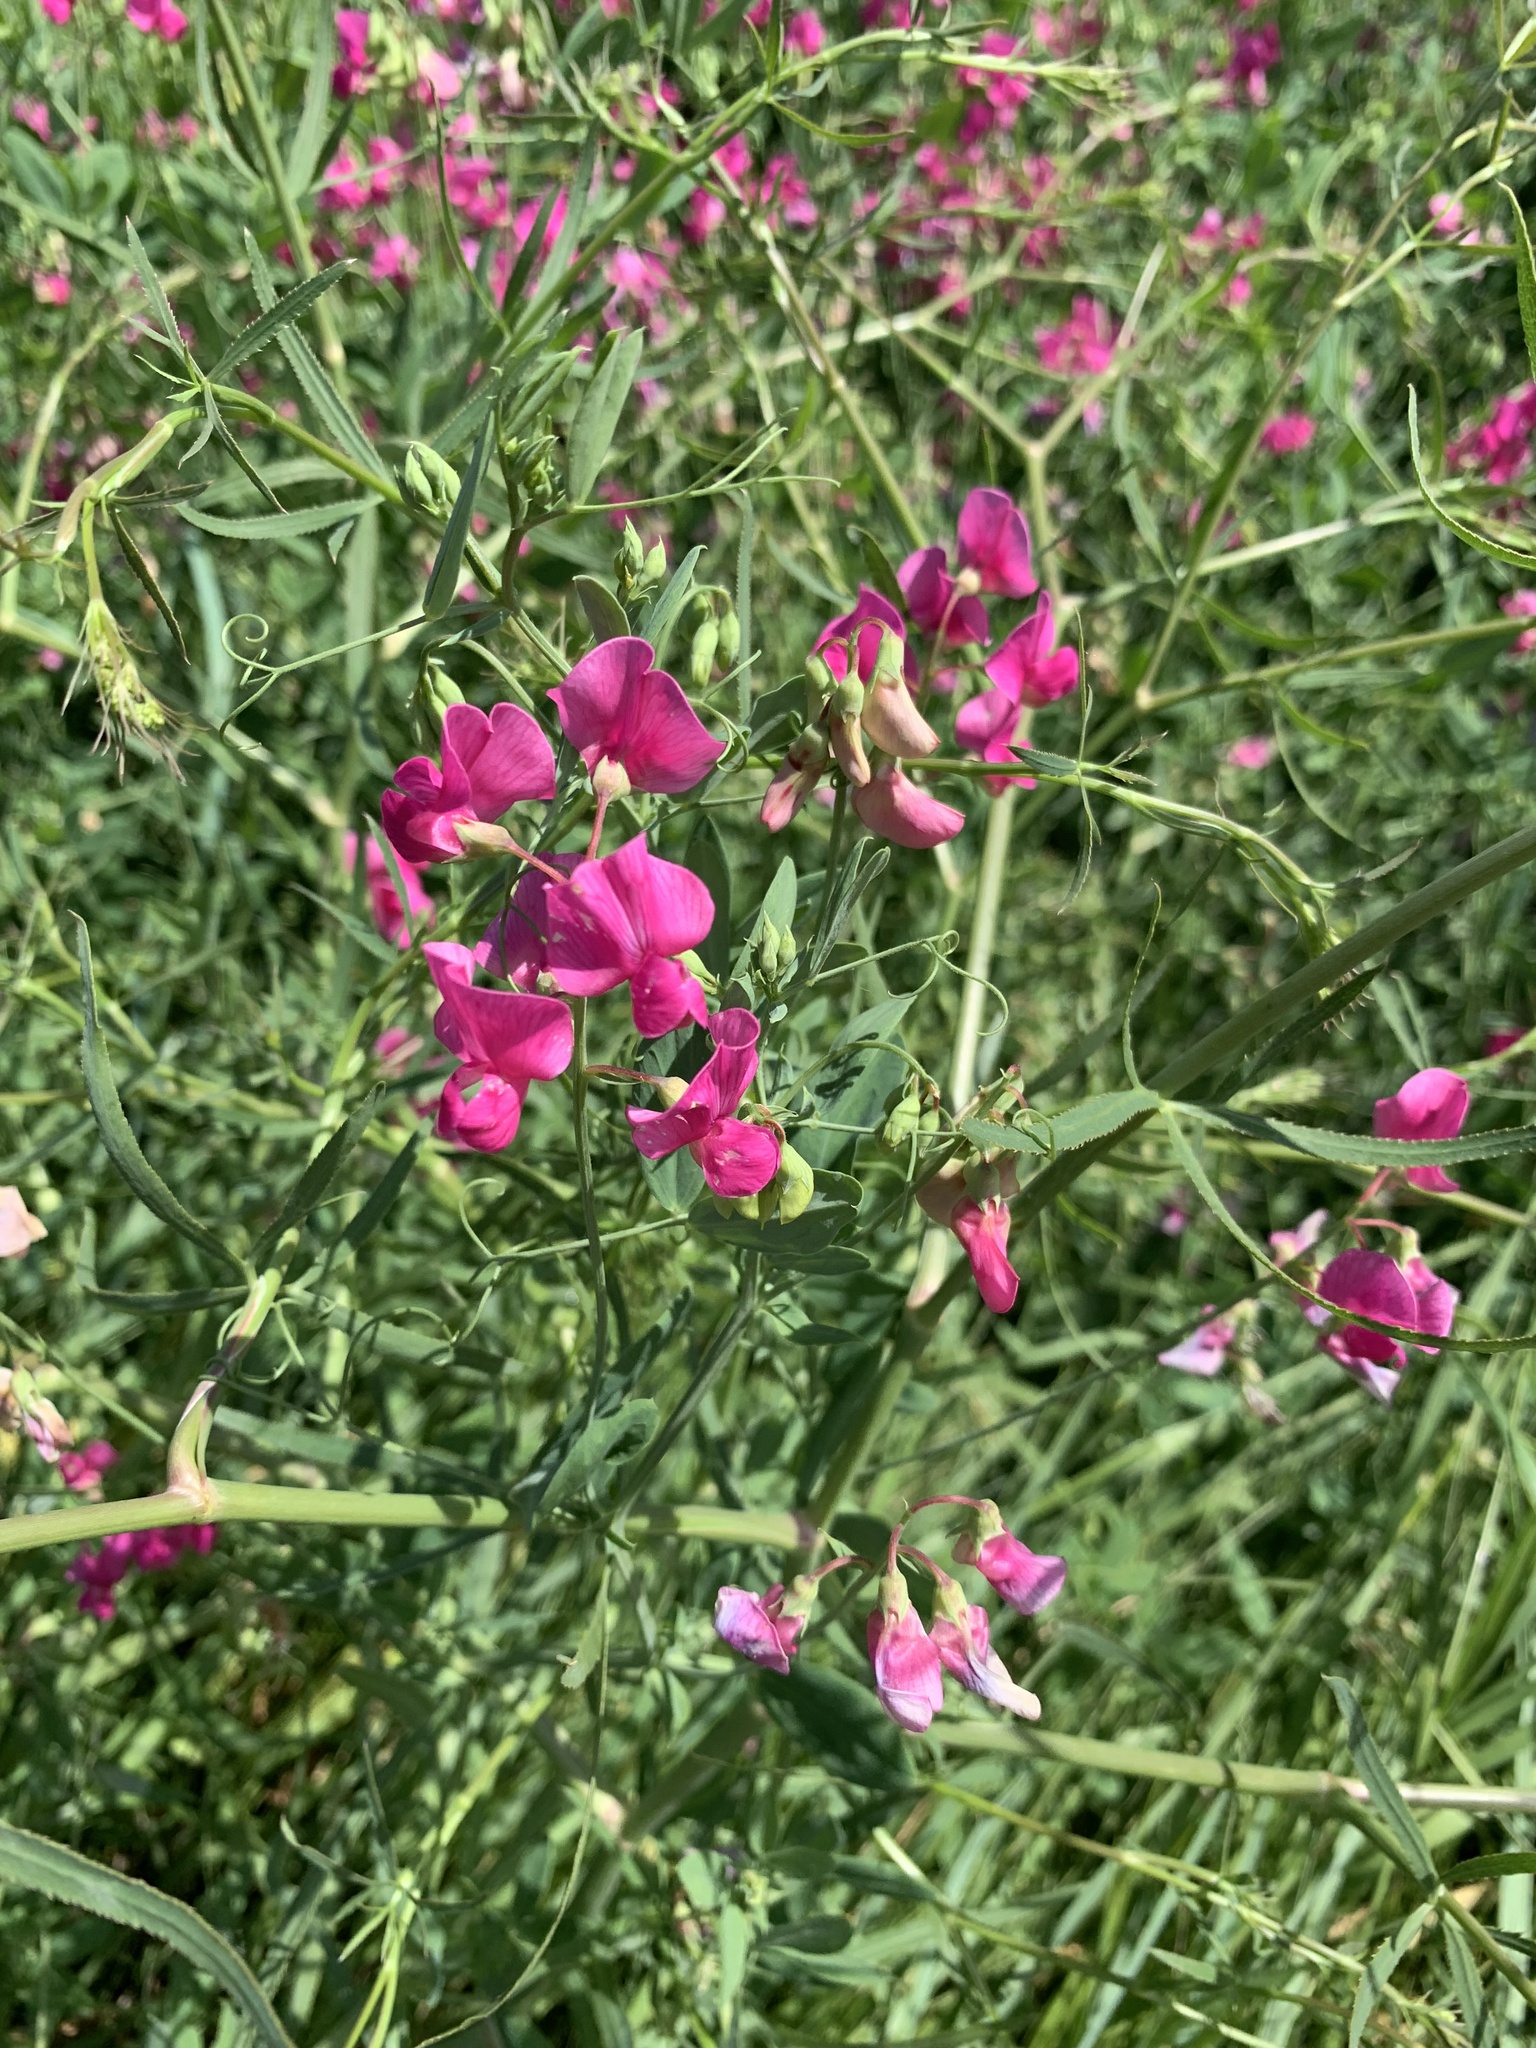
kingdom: Plantae
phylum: Tracheophyta
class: Magnoliopsida
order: Fabales
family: Fabaceae
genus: Lathyrus
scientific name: Lathyrus tuberosus
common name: Tuberous pea
